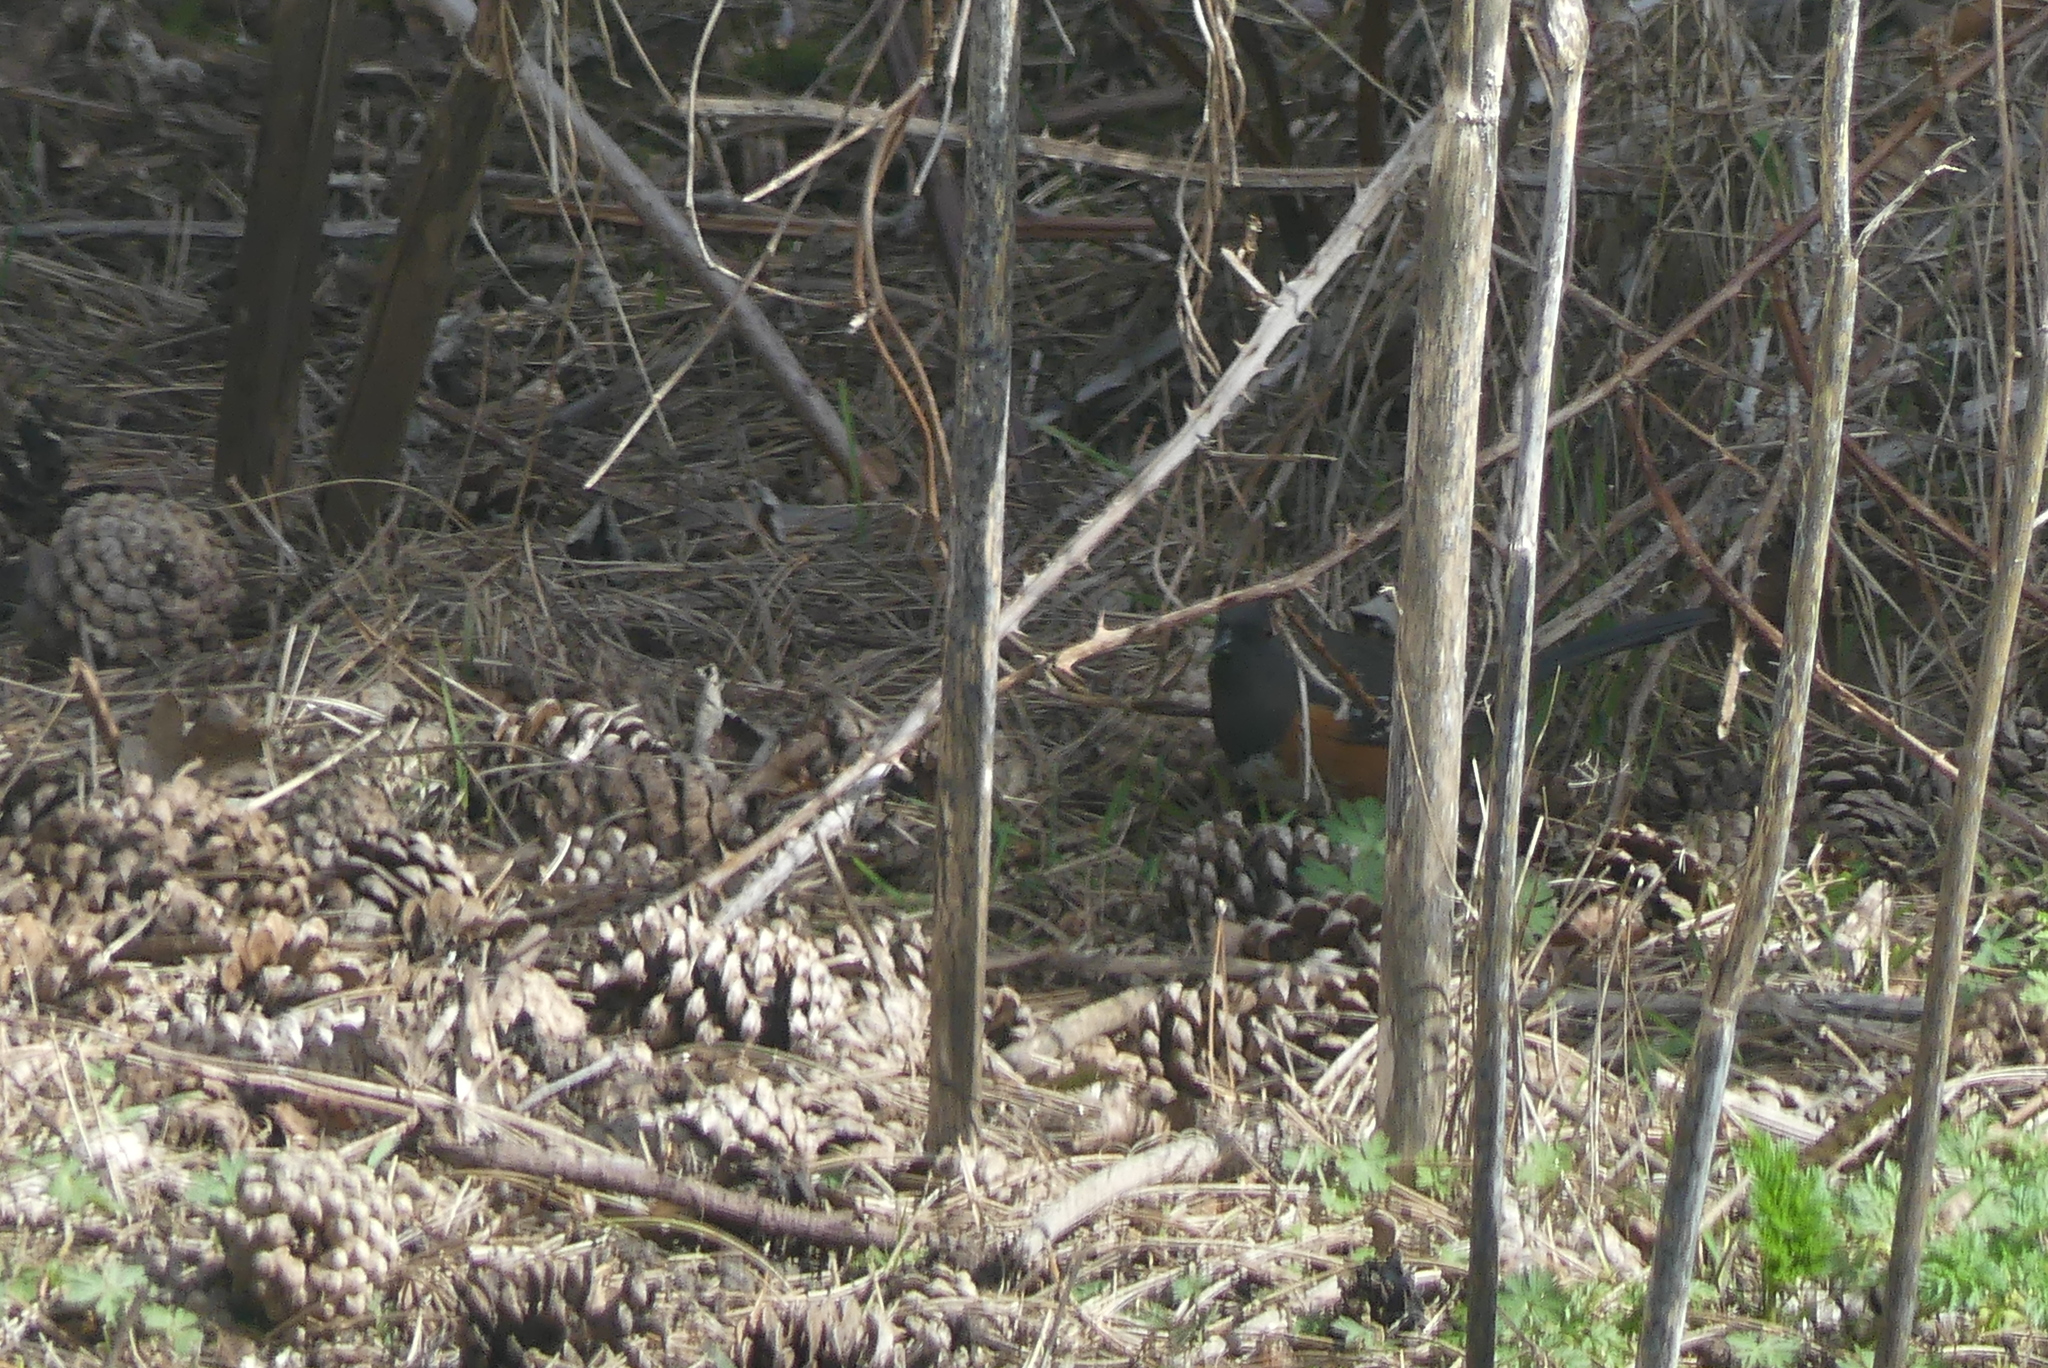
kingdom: Animalia
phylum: Chordata
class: Aves
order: Passeriformes
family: Passerellidae
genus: Pipilo
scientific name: Pipilo maculatus
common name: Spotted towhee
